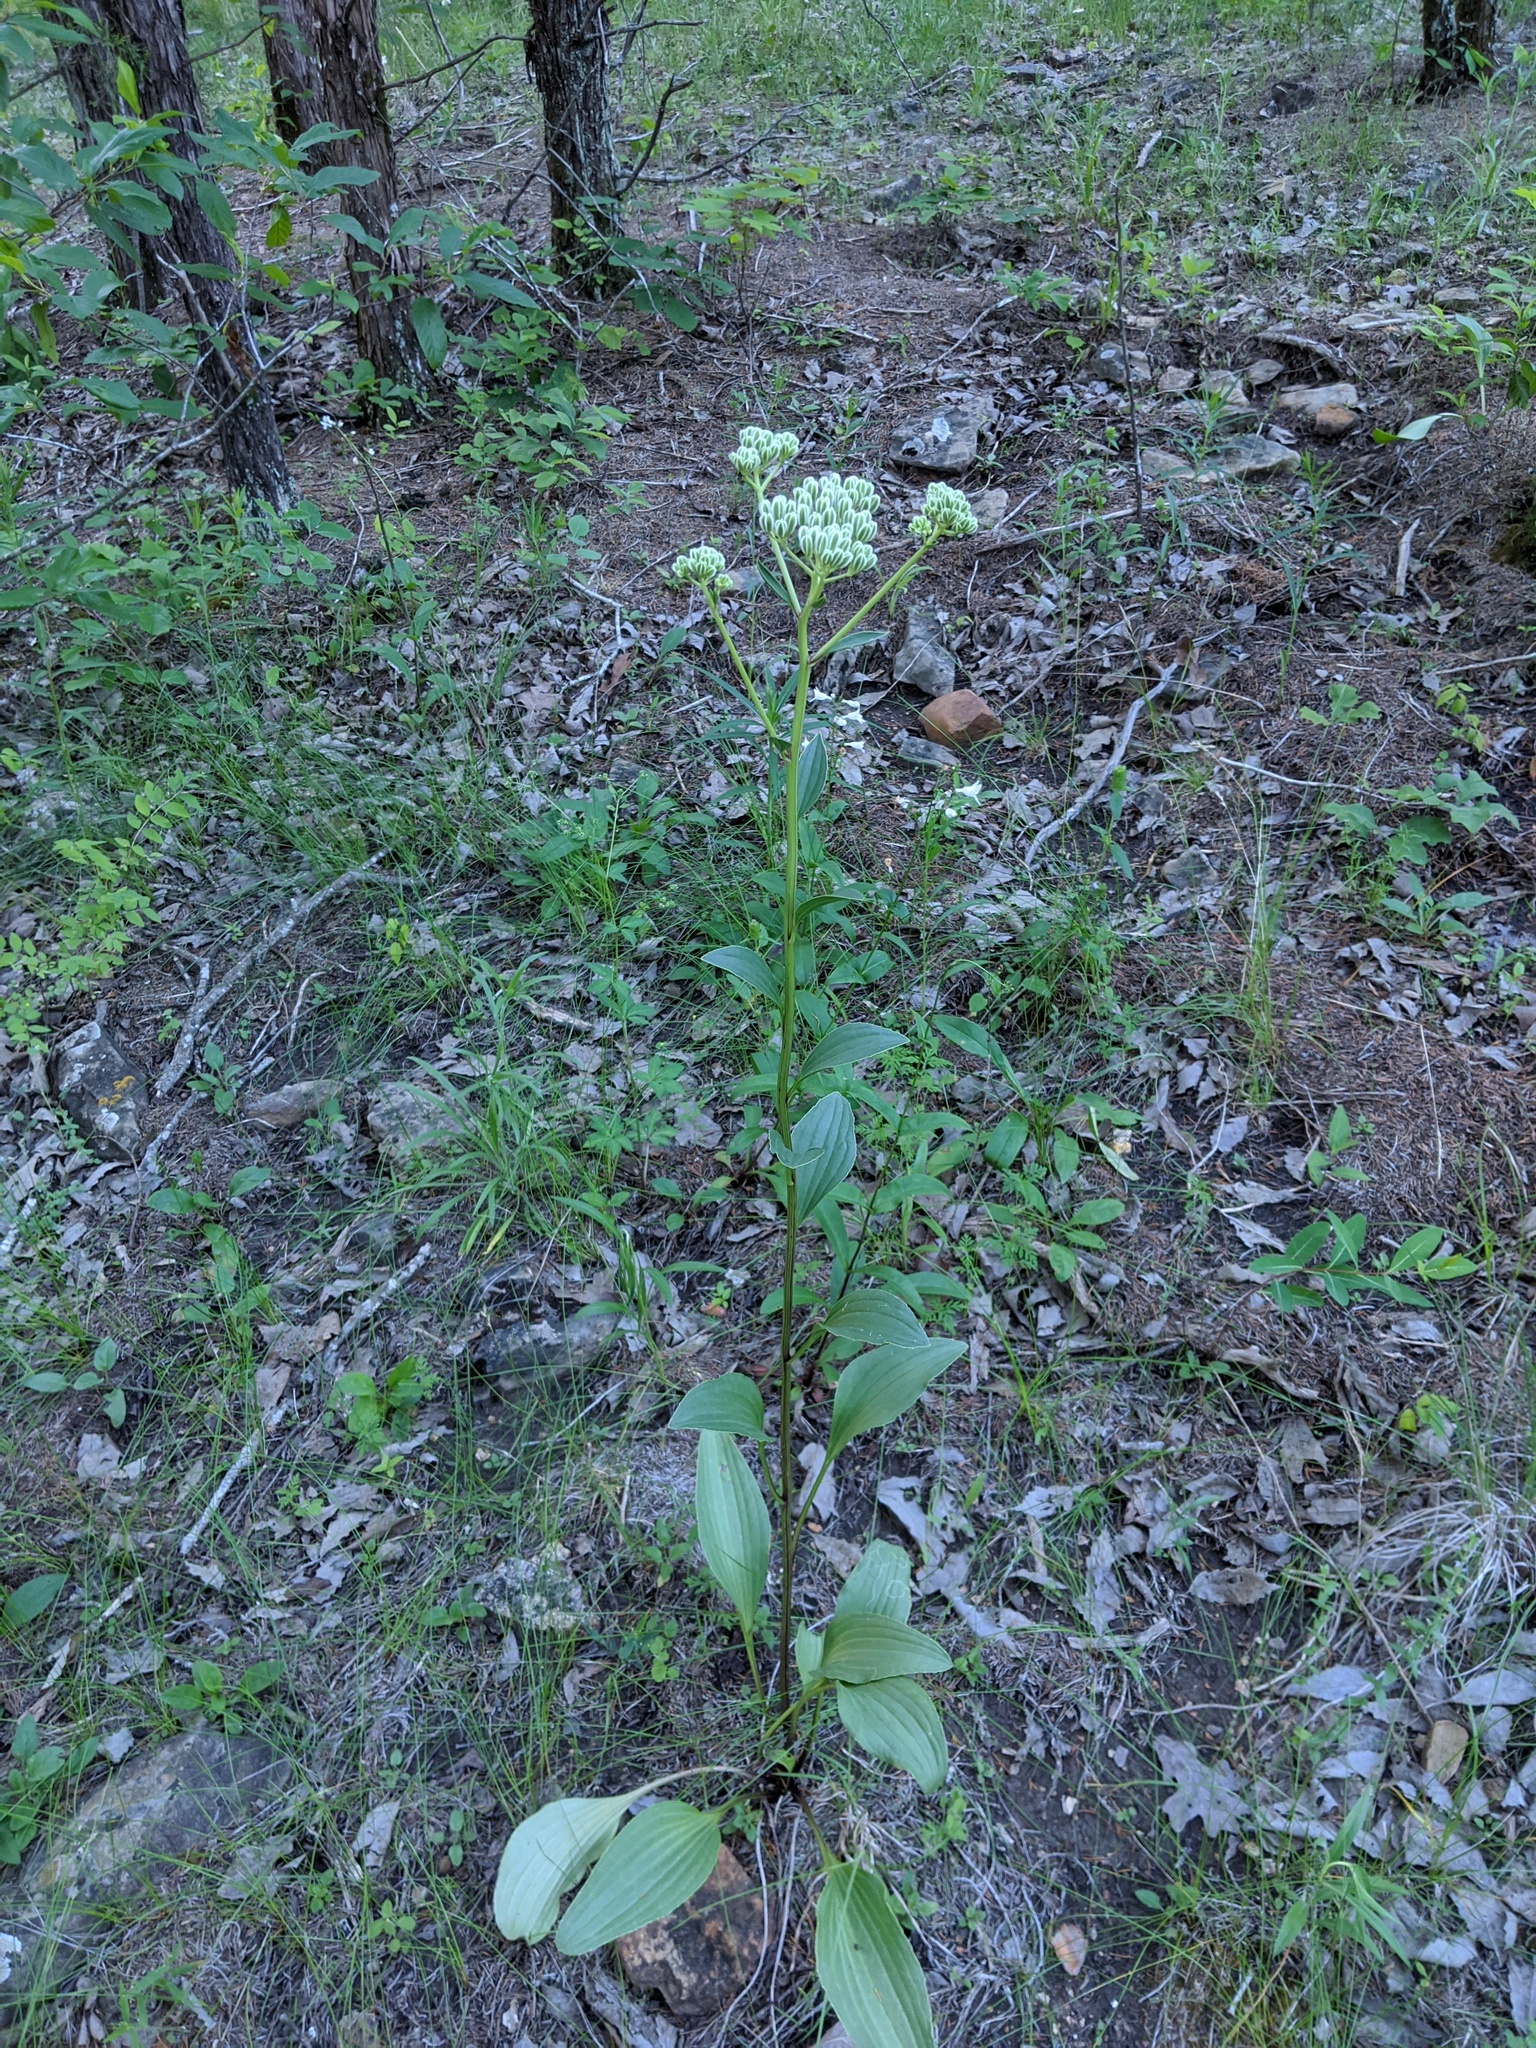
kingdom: Plantae
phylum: Tracheophyta
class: Magnoliopsida
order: Asterales
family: Asteraceae
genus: Arnoglossum
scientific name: Arnoglossum plantagineum
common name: Groove-stemmed indian-plantain
